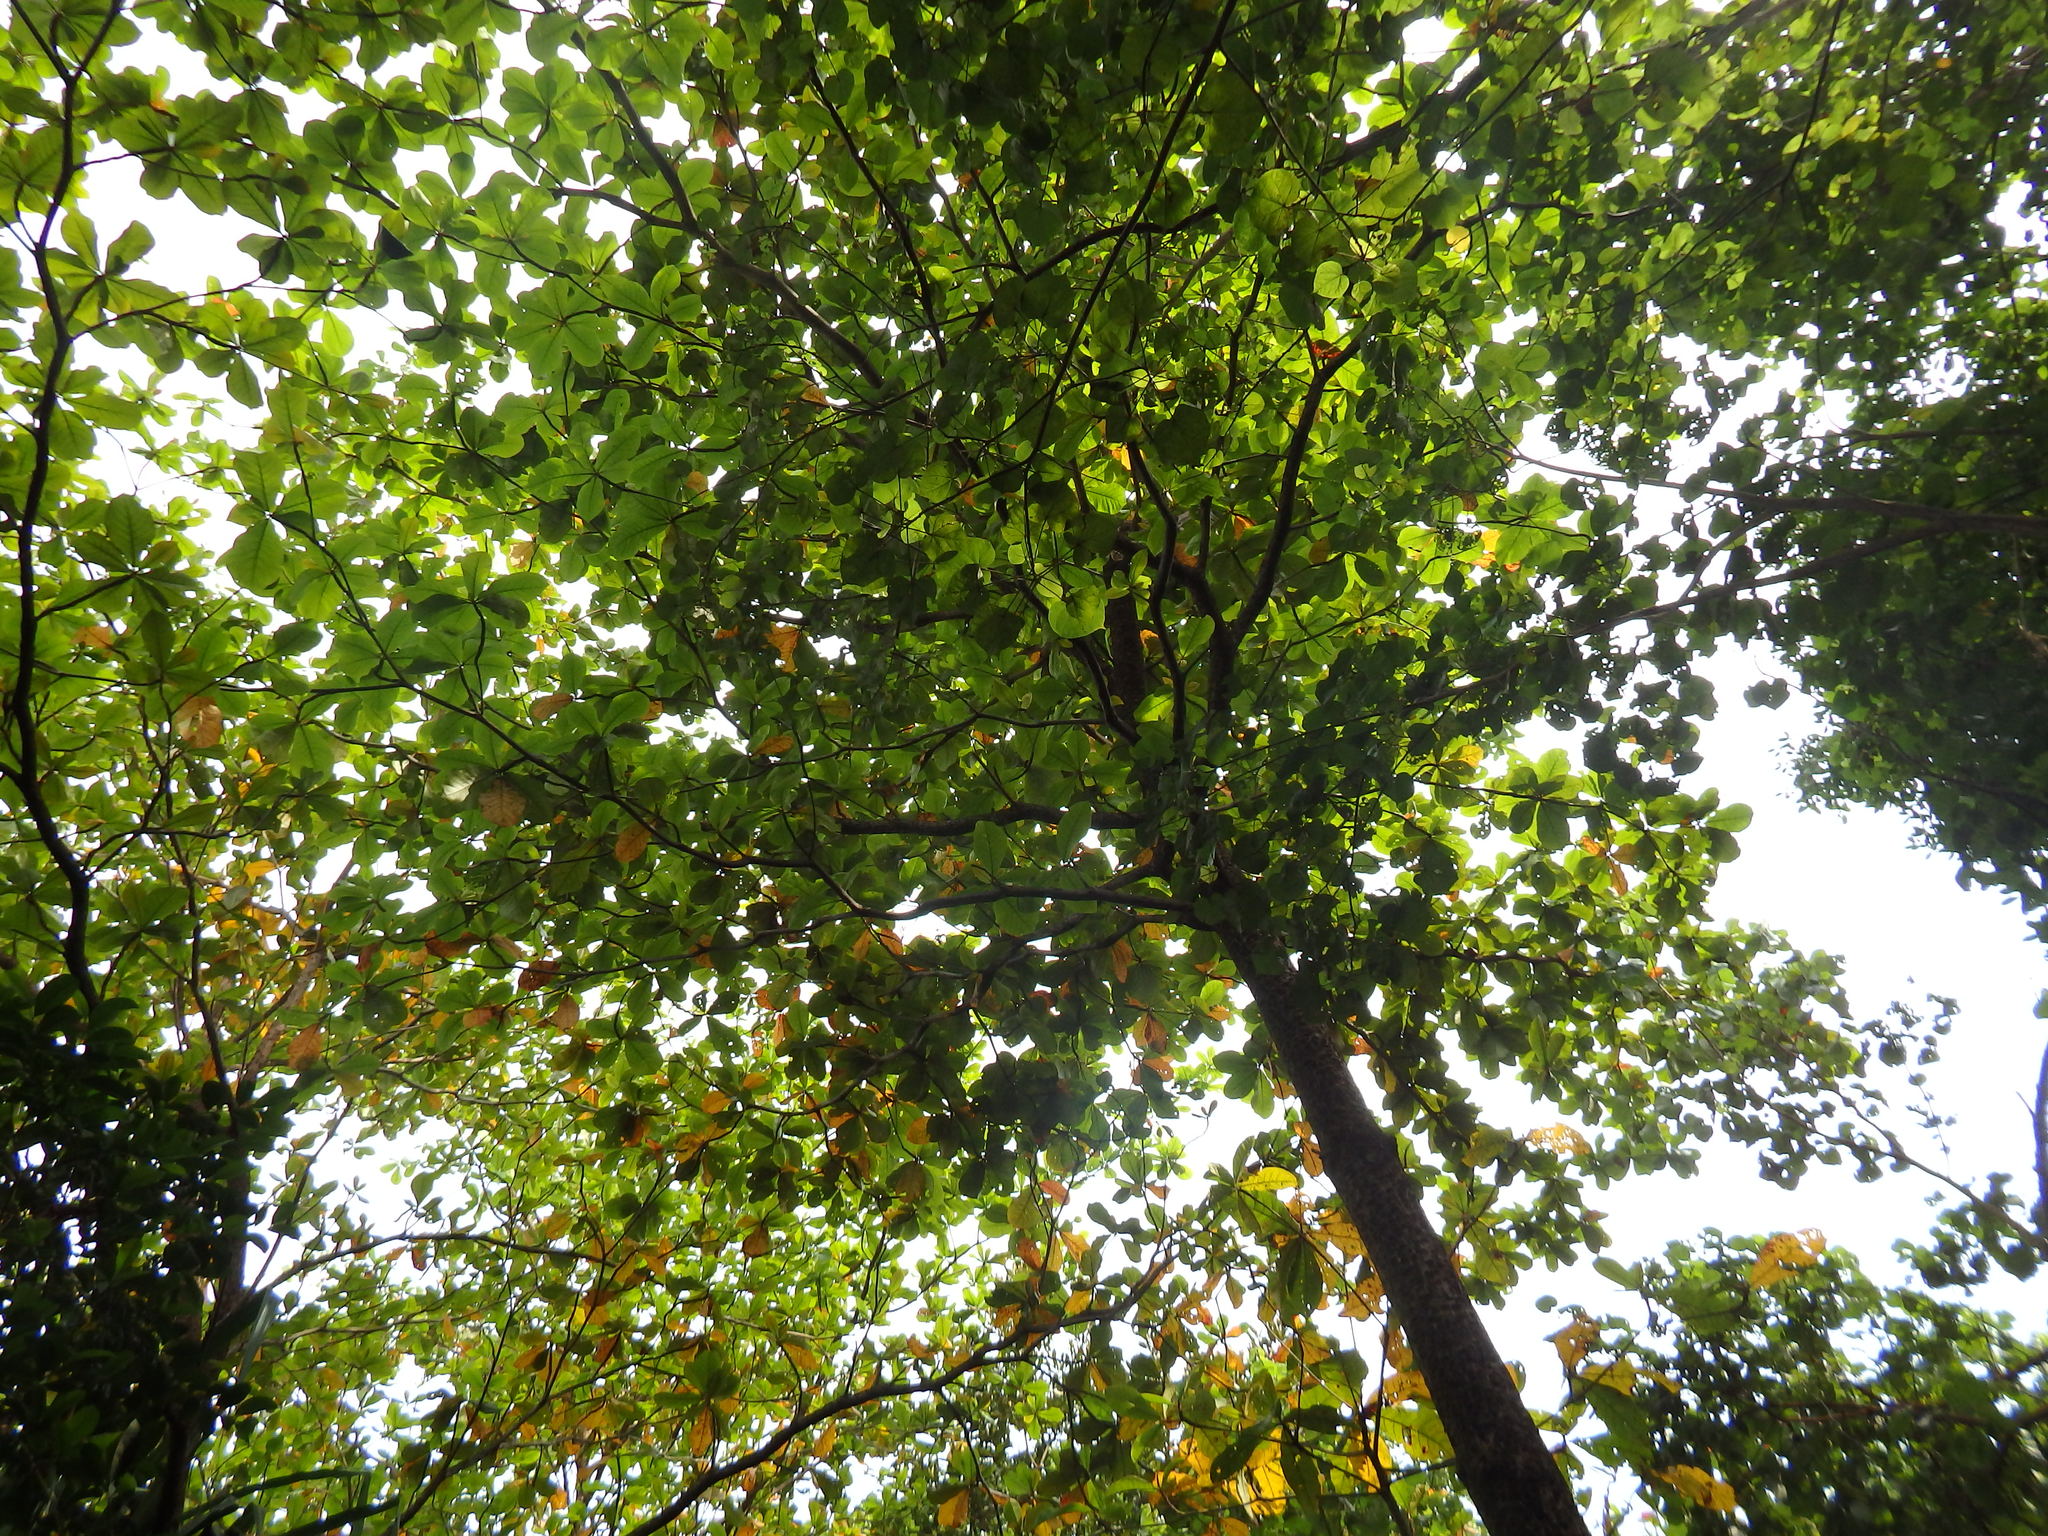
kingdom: Plantae
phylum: Tracheophyta
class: Magnoliopsida
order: Myrtales
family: Combretaceae
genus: Terminalia
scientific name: Terminalia catappa
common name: Tropical almond
